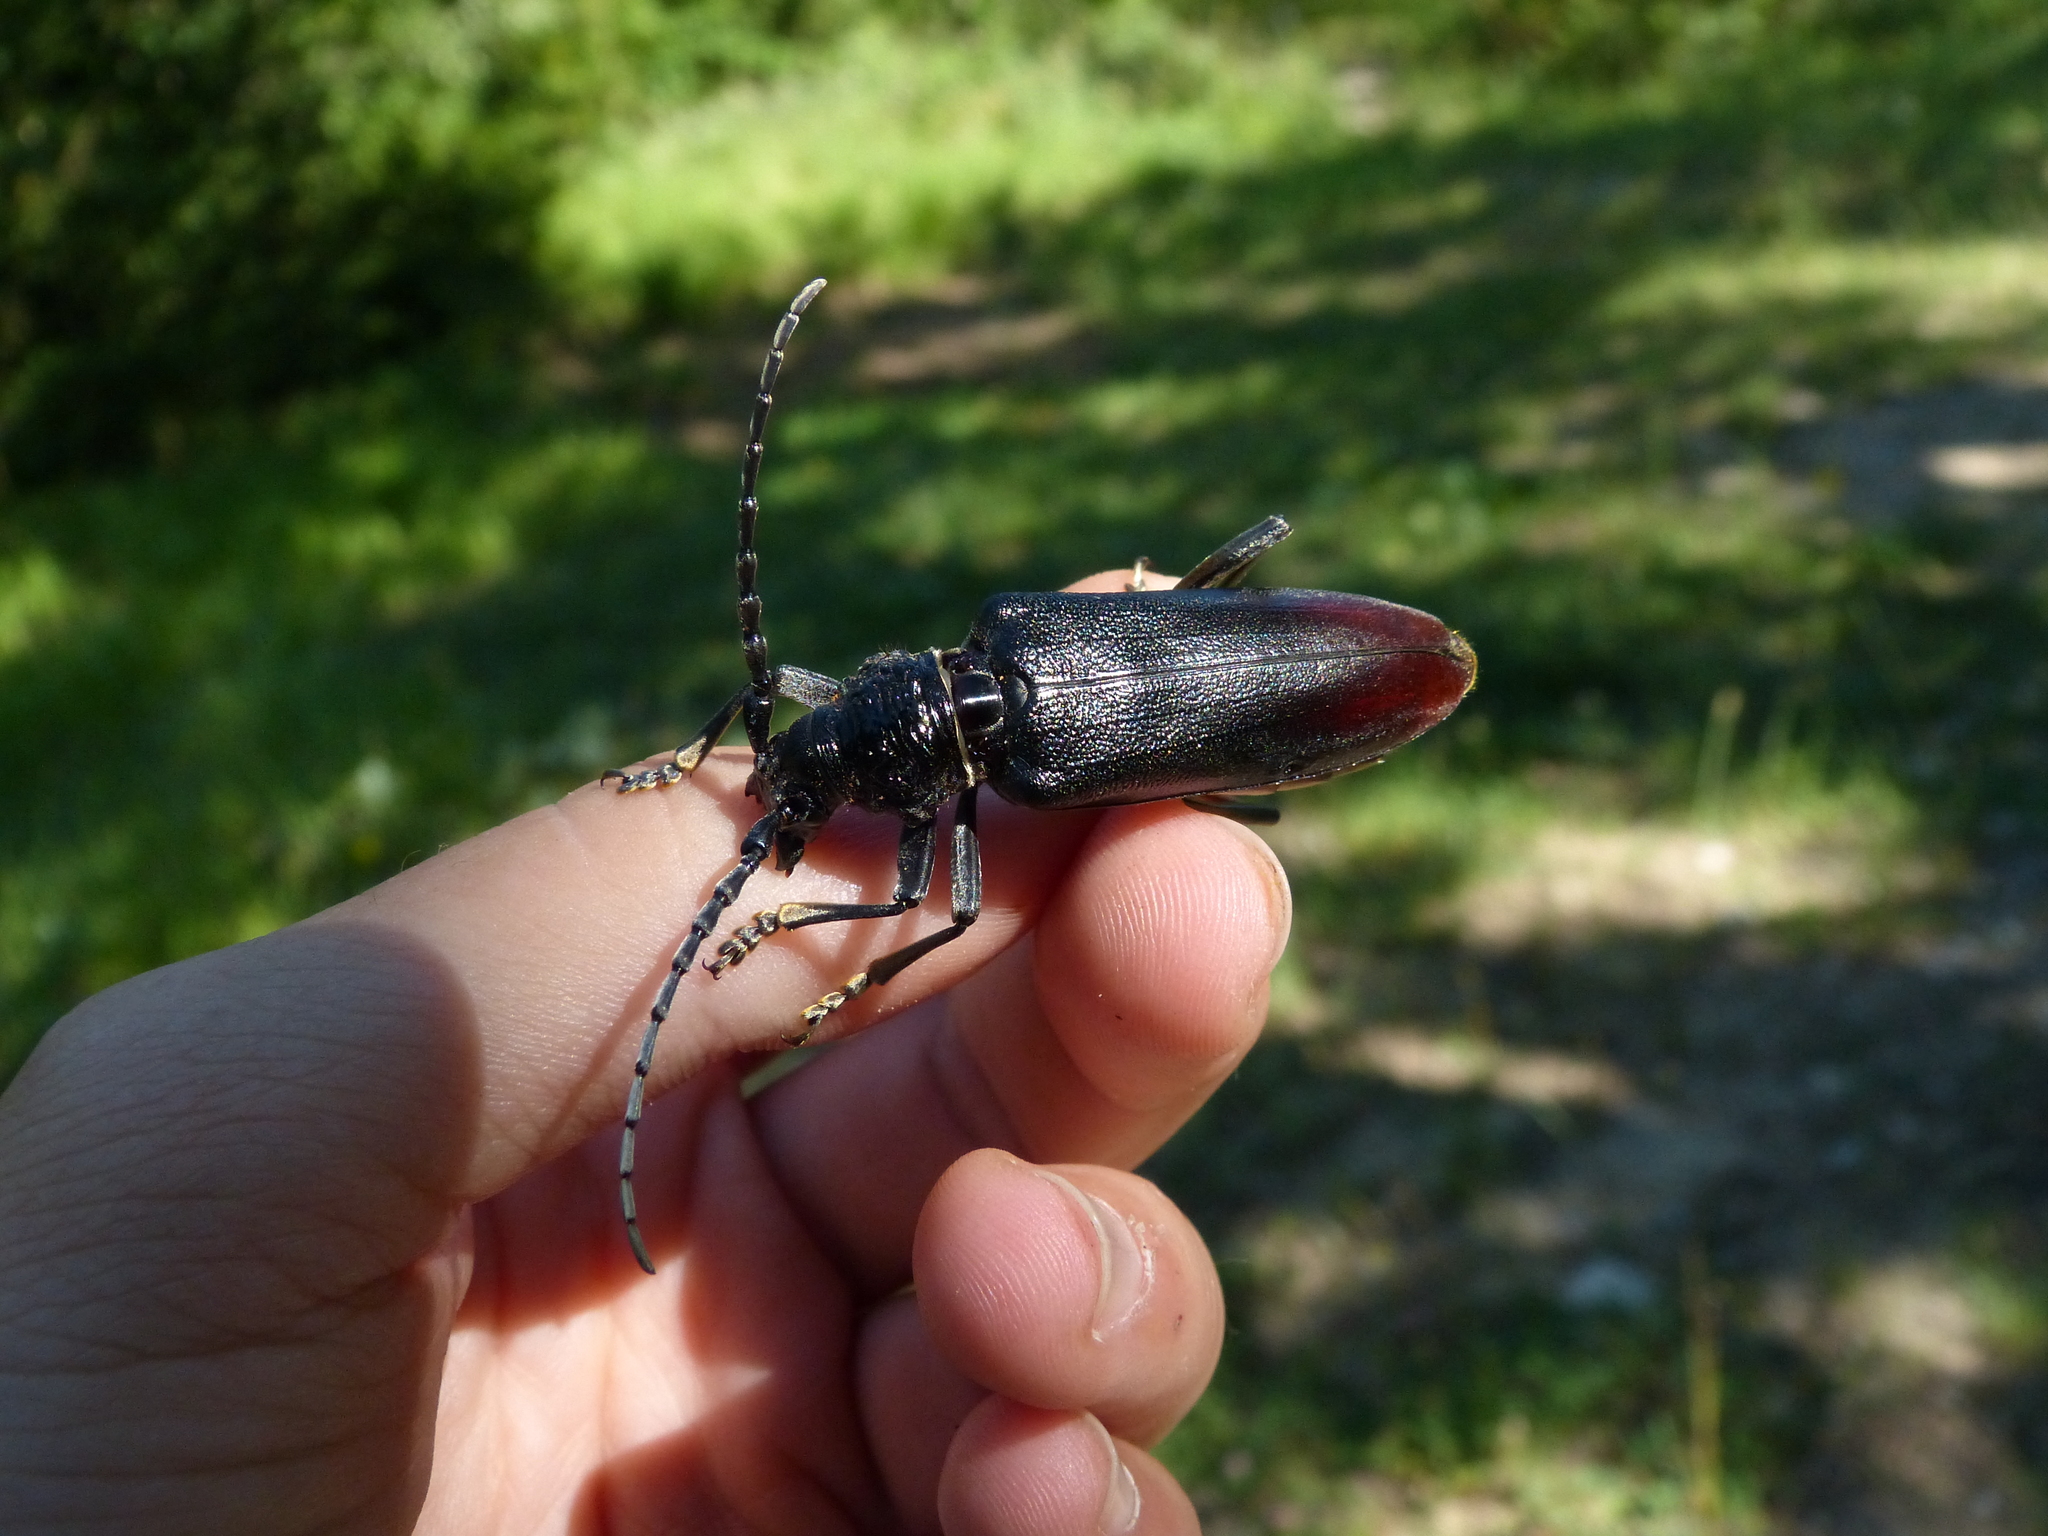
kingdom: Animalia
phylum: Arthropoda
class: Insecta
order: Coleoptera
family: Cerambycidae
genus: Cerambyx
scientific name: Cerambyx miles
